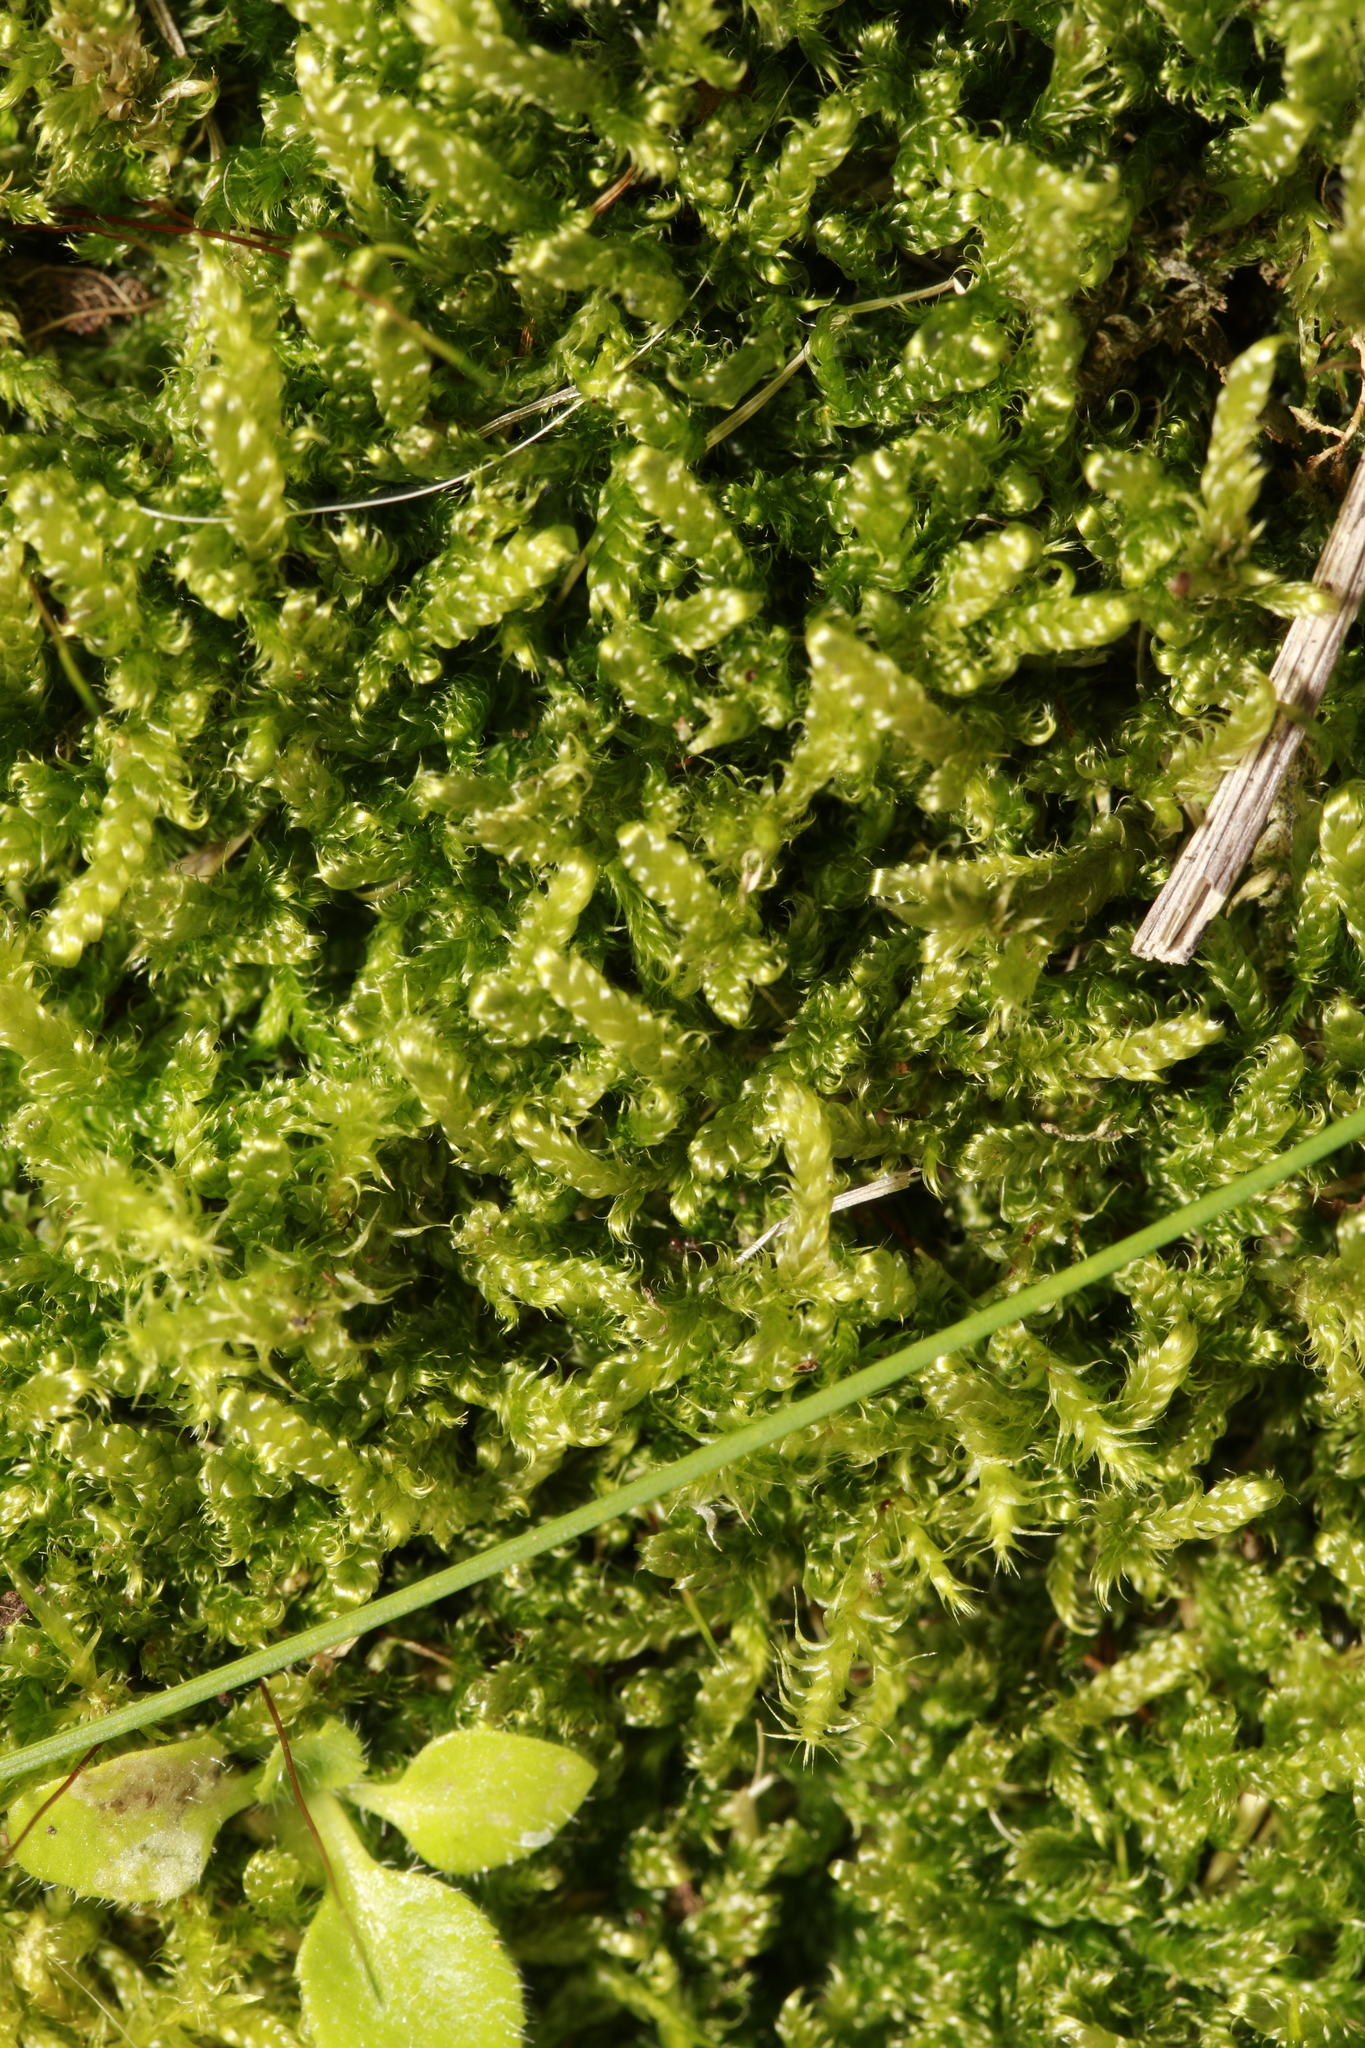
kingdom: Plantae
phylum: Bryophyta
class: Bryopsida
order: Hypnales
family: Hypnaceae
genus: Hypnum
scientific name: Hypnum cupressiforme
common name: Cypress-leaved plait-moss
